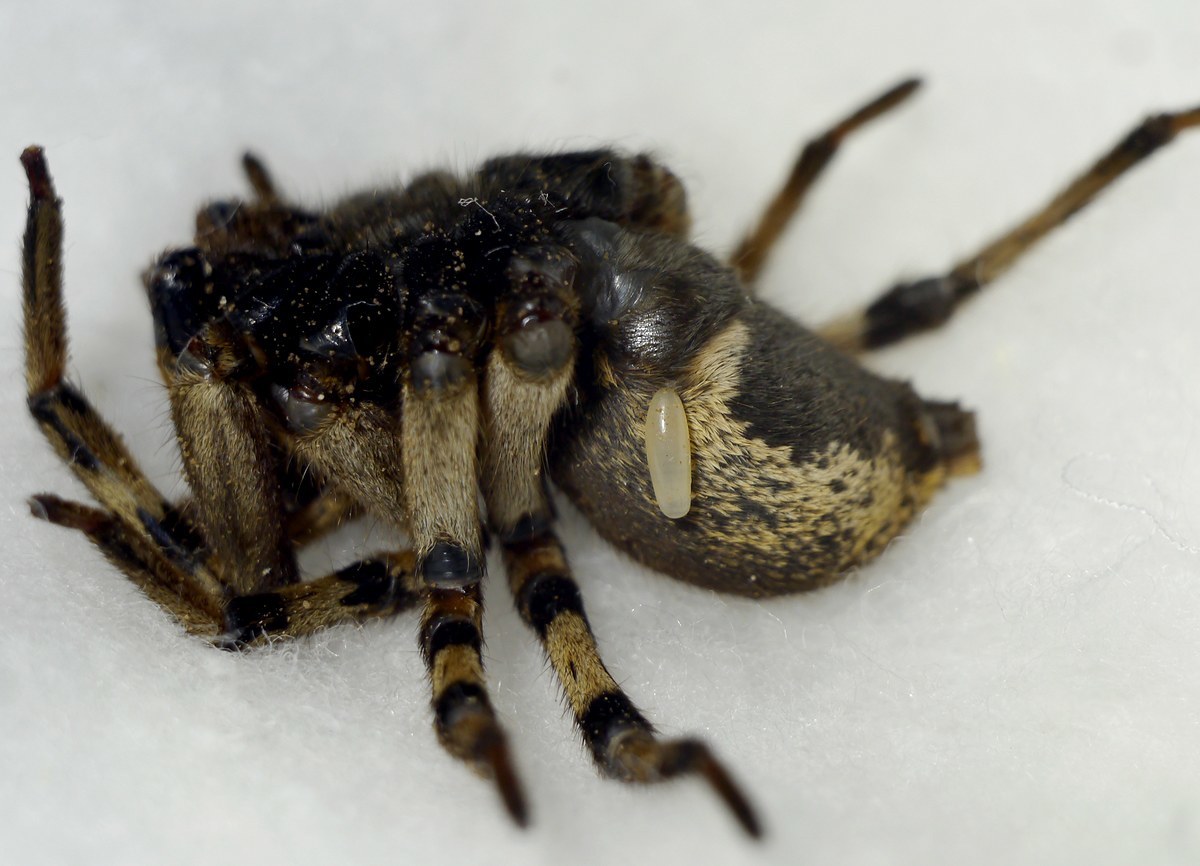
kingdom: Animalia
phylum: Arthropoda
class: Insecta
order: Hymenoptera
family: Pompilidae
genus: Cryptocheilus
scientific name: Cryptocheilus octomaculatus
